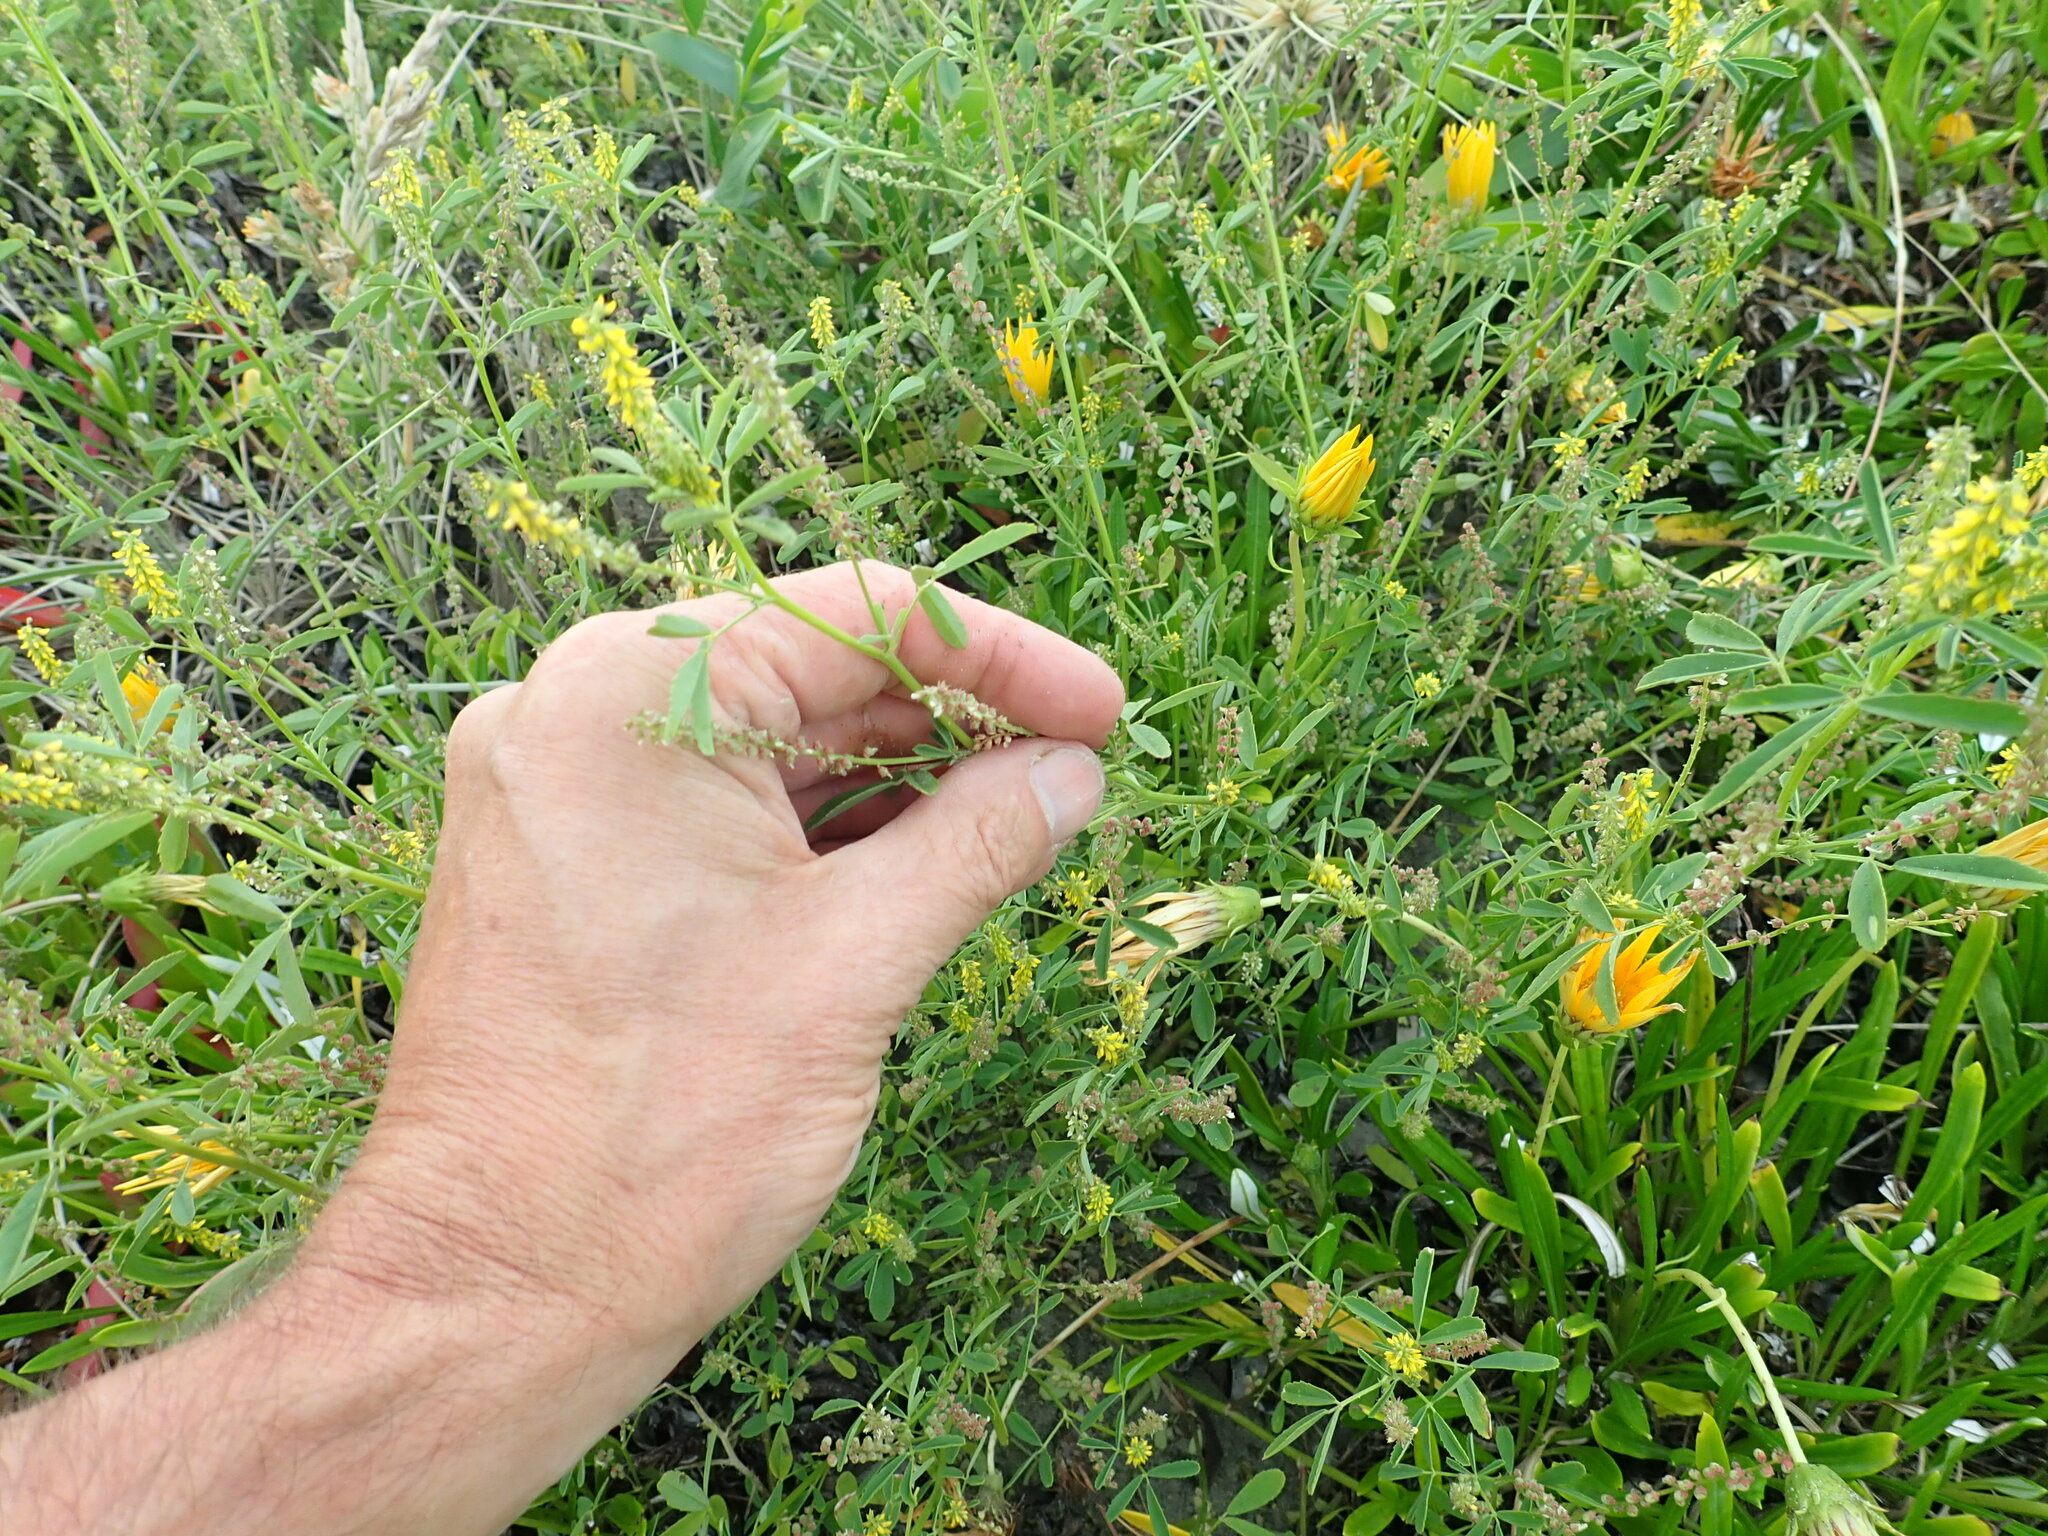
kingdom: Plantae
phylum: Tracheophyta
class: Magnoliopsida
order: Fabales
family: Fabaceae
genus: Melilotus
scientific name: Melilotus indicus
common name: Small melilot
